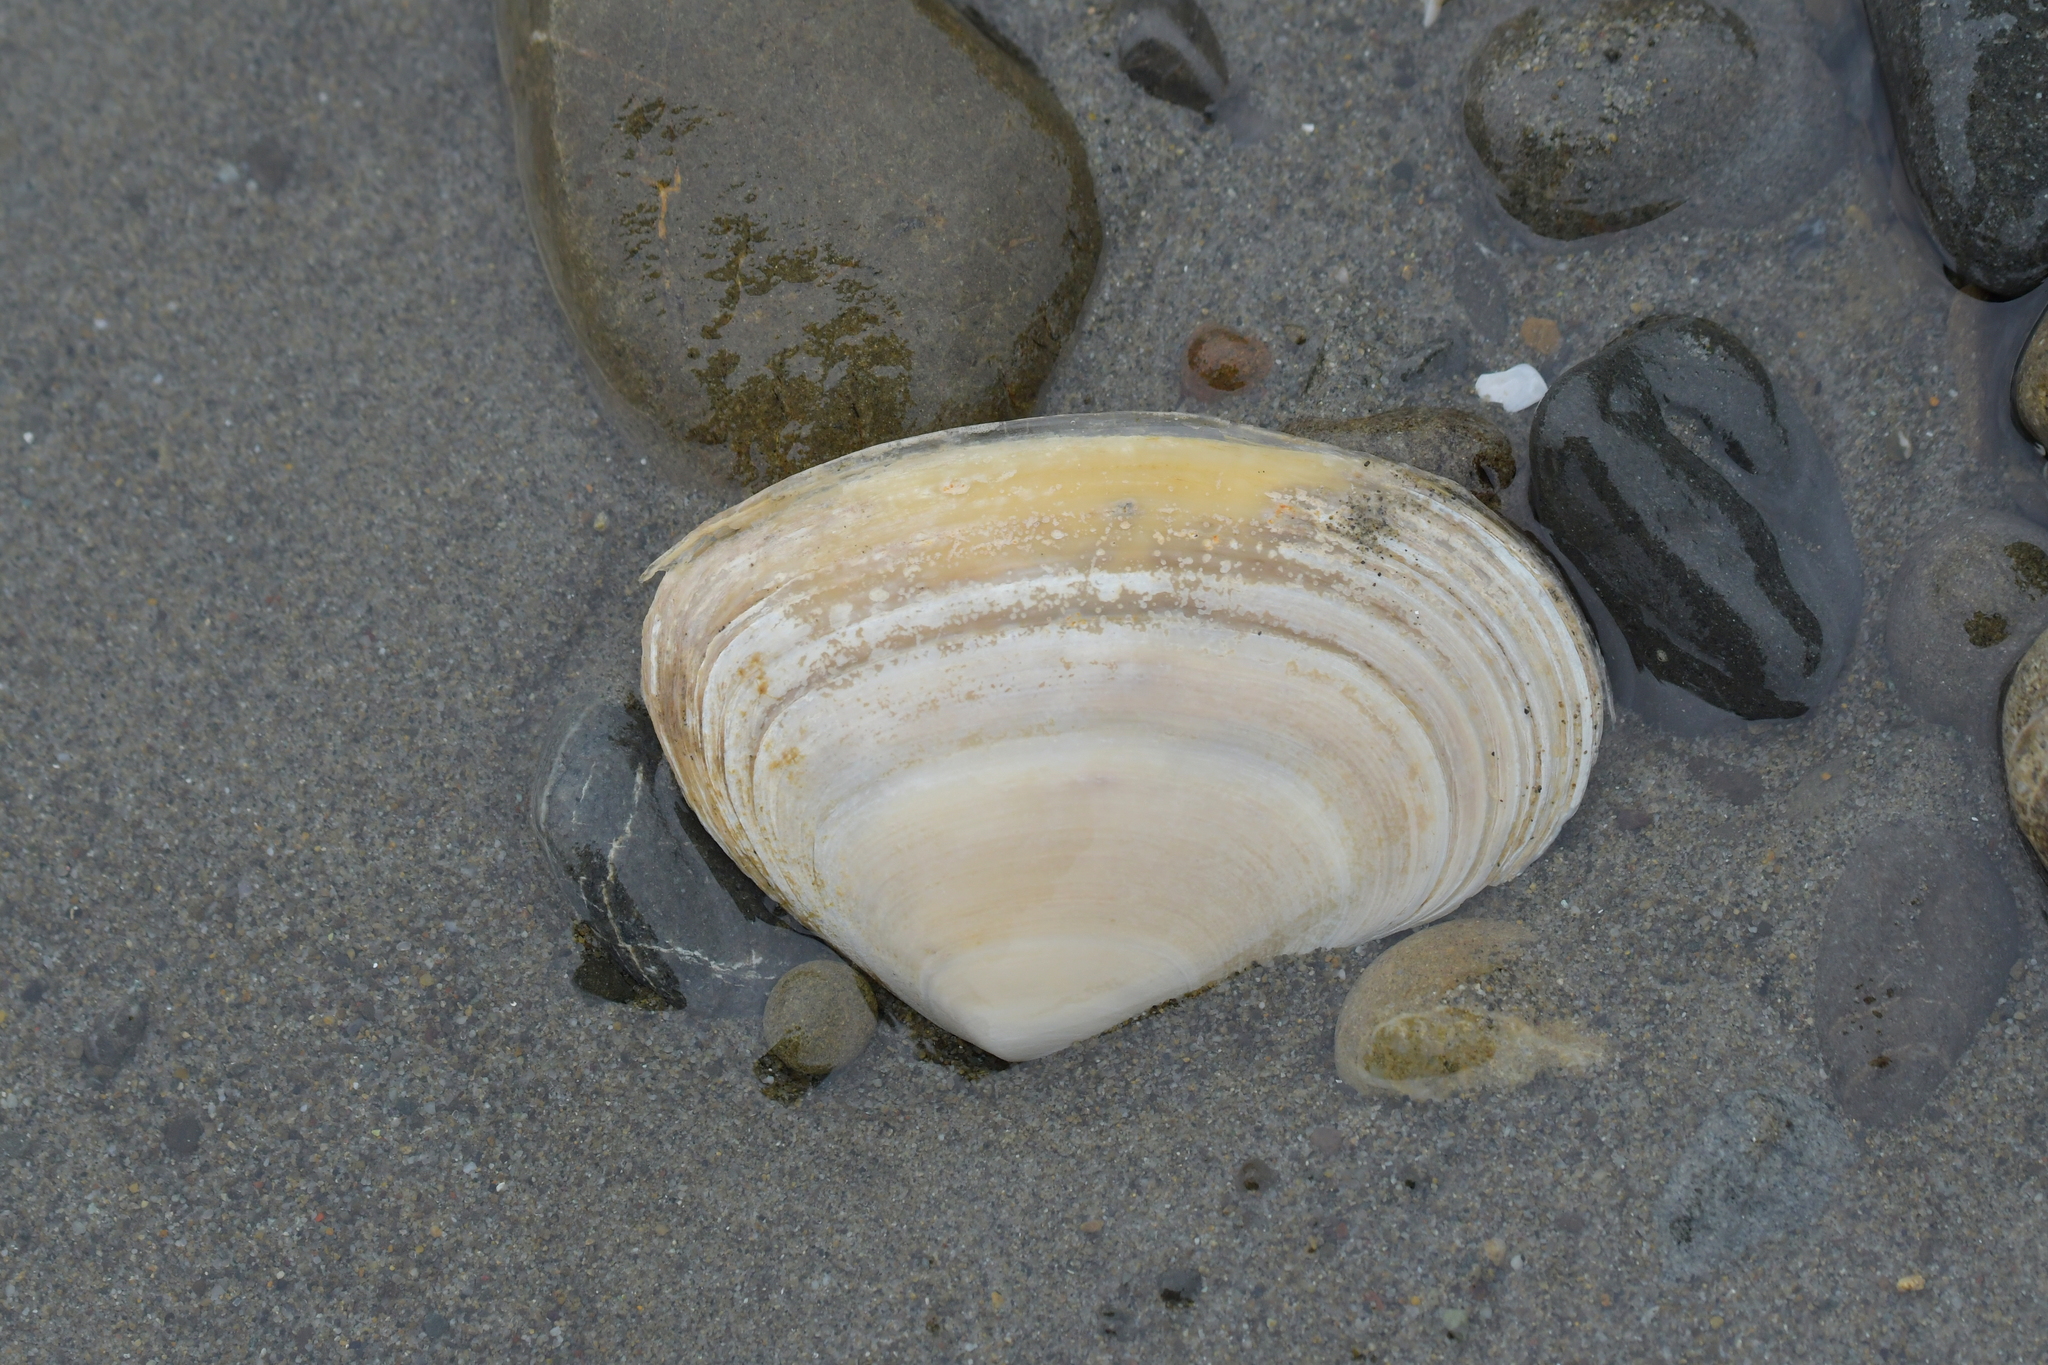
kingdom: Animalia
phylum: Mollusca
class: Bivalvia
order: Venerida
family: Mesodesmatidae
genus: Paphies
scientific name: Paphies donacina
